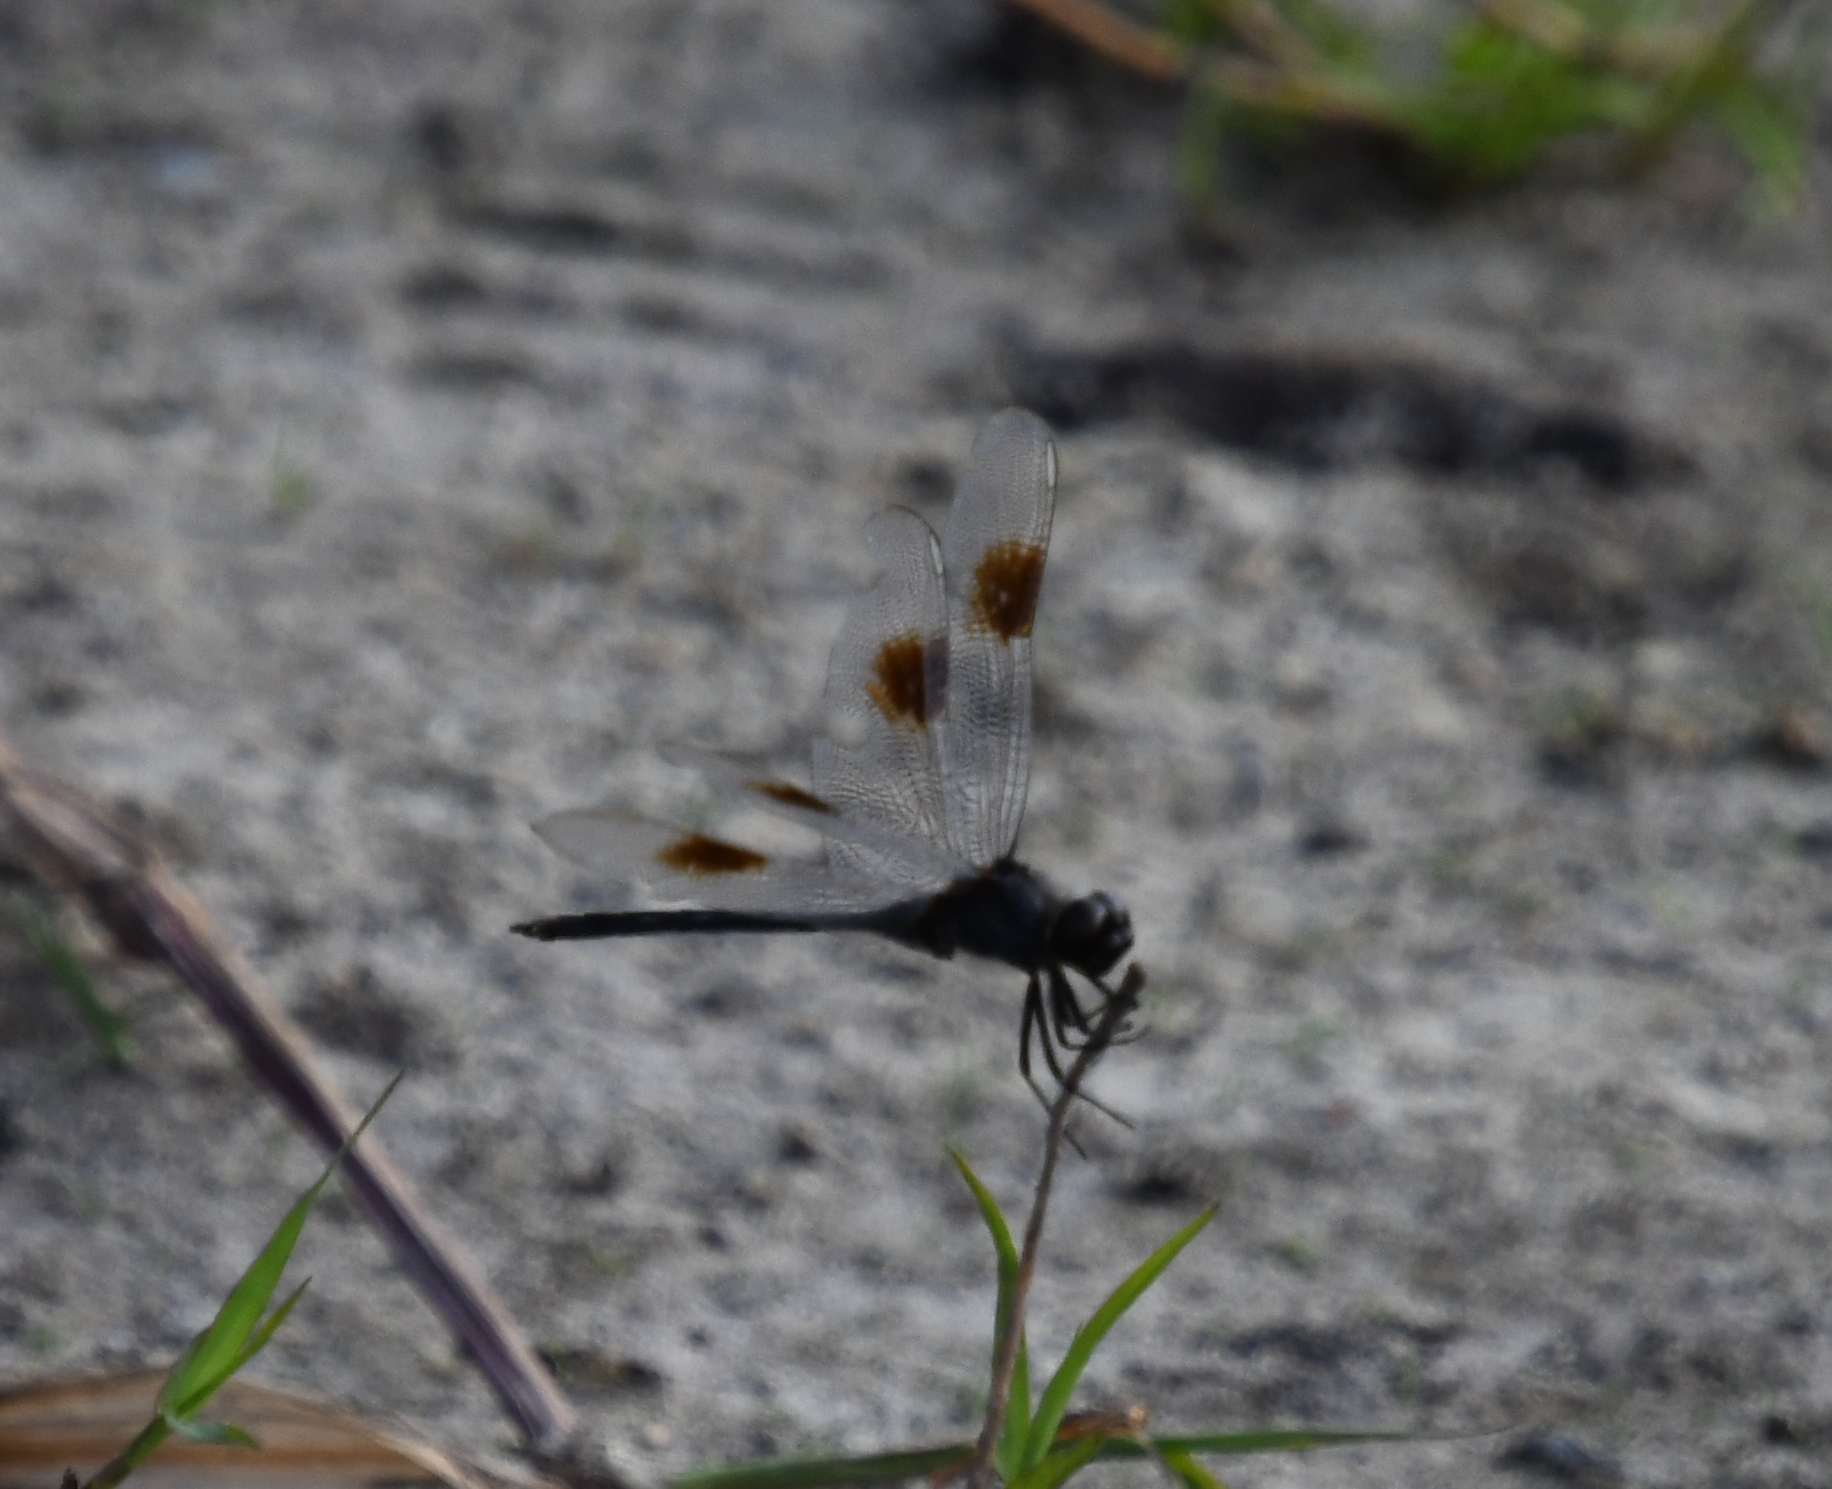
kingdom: Animalia
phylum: Arthropoda
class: Insecta
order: Odonata
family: Libellulidae
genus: Brachymesia
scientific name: Brachymesia gravida
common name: Four-spotted pennant
